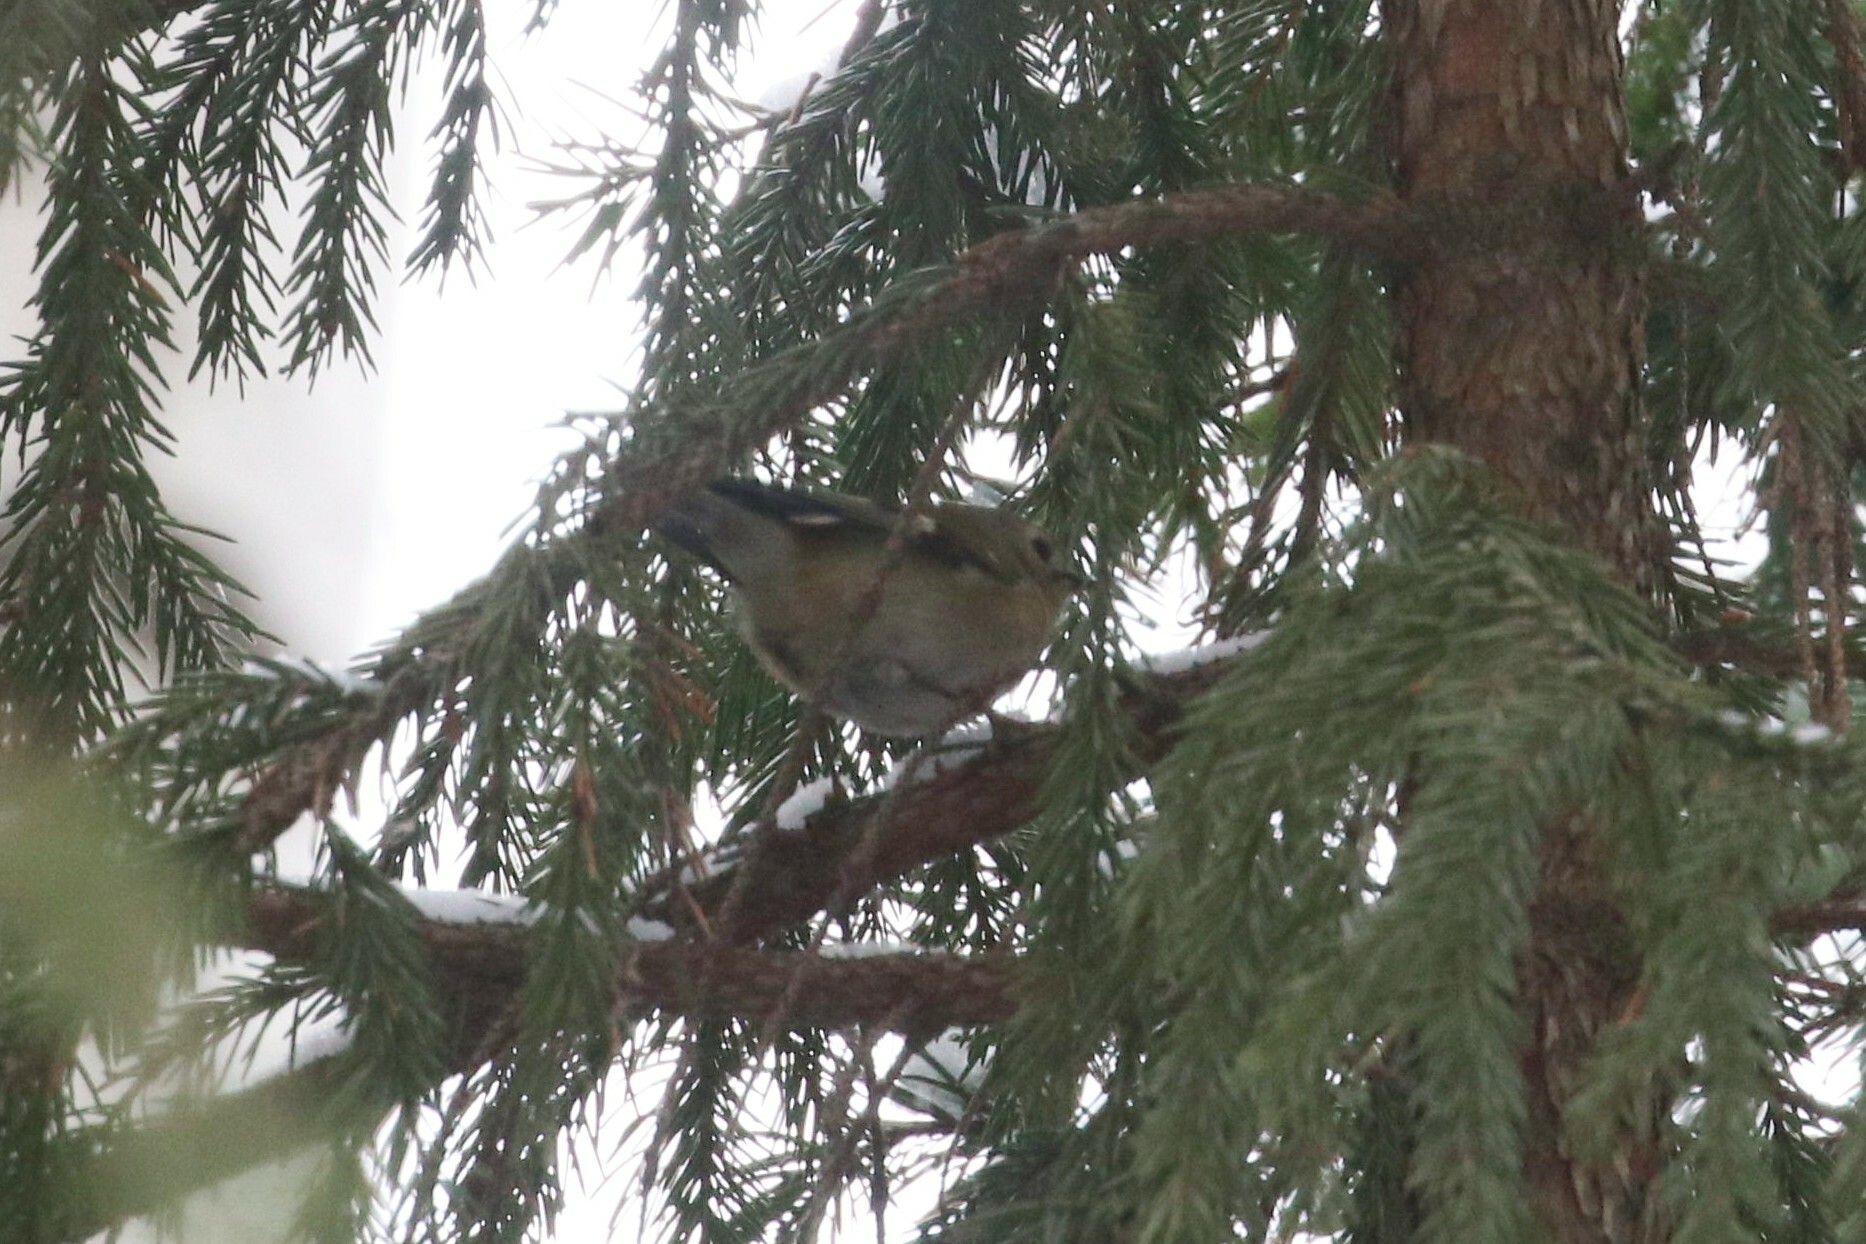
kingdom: Animalia
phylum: Chordata
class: Aves
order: Passeriformes
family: Regulidae
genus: Regulus
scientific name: Regulus regulus
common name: Goldcrest
